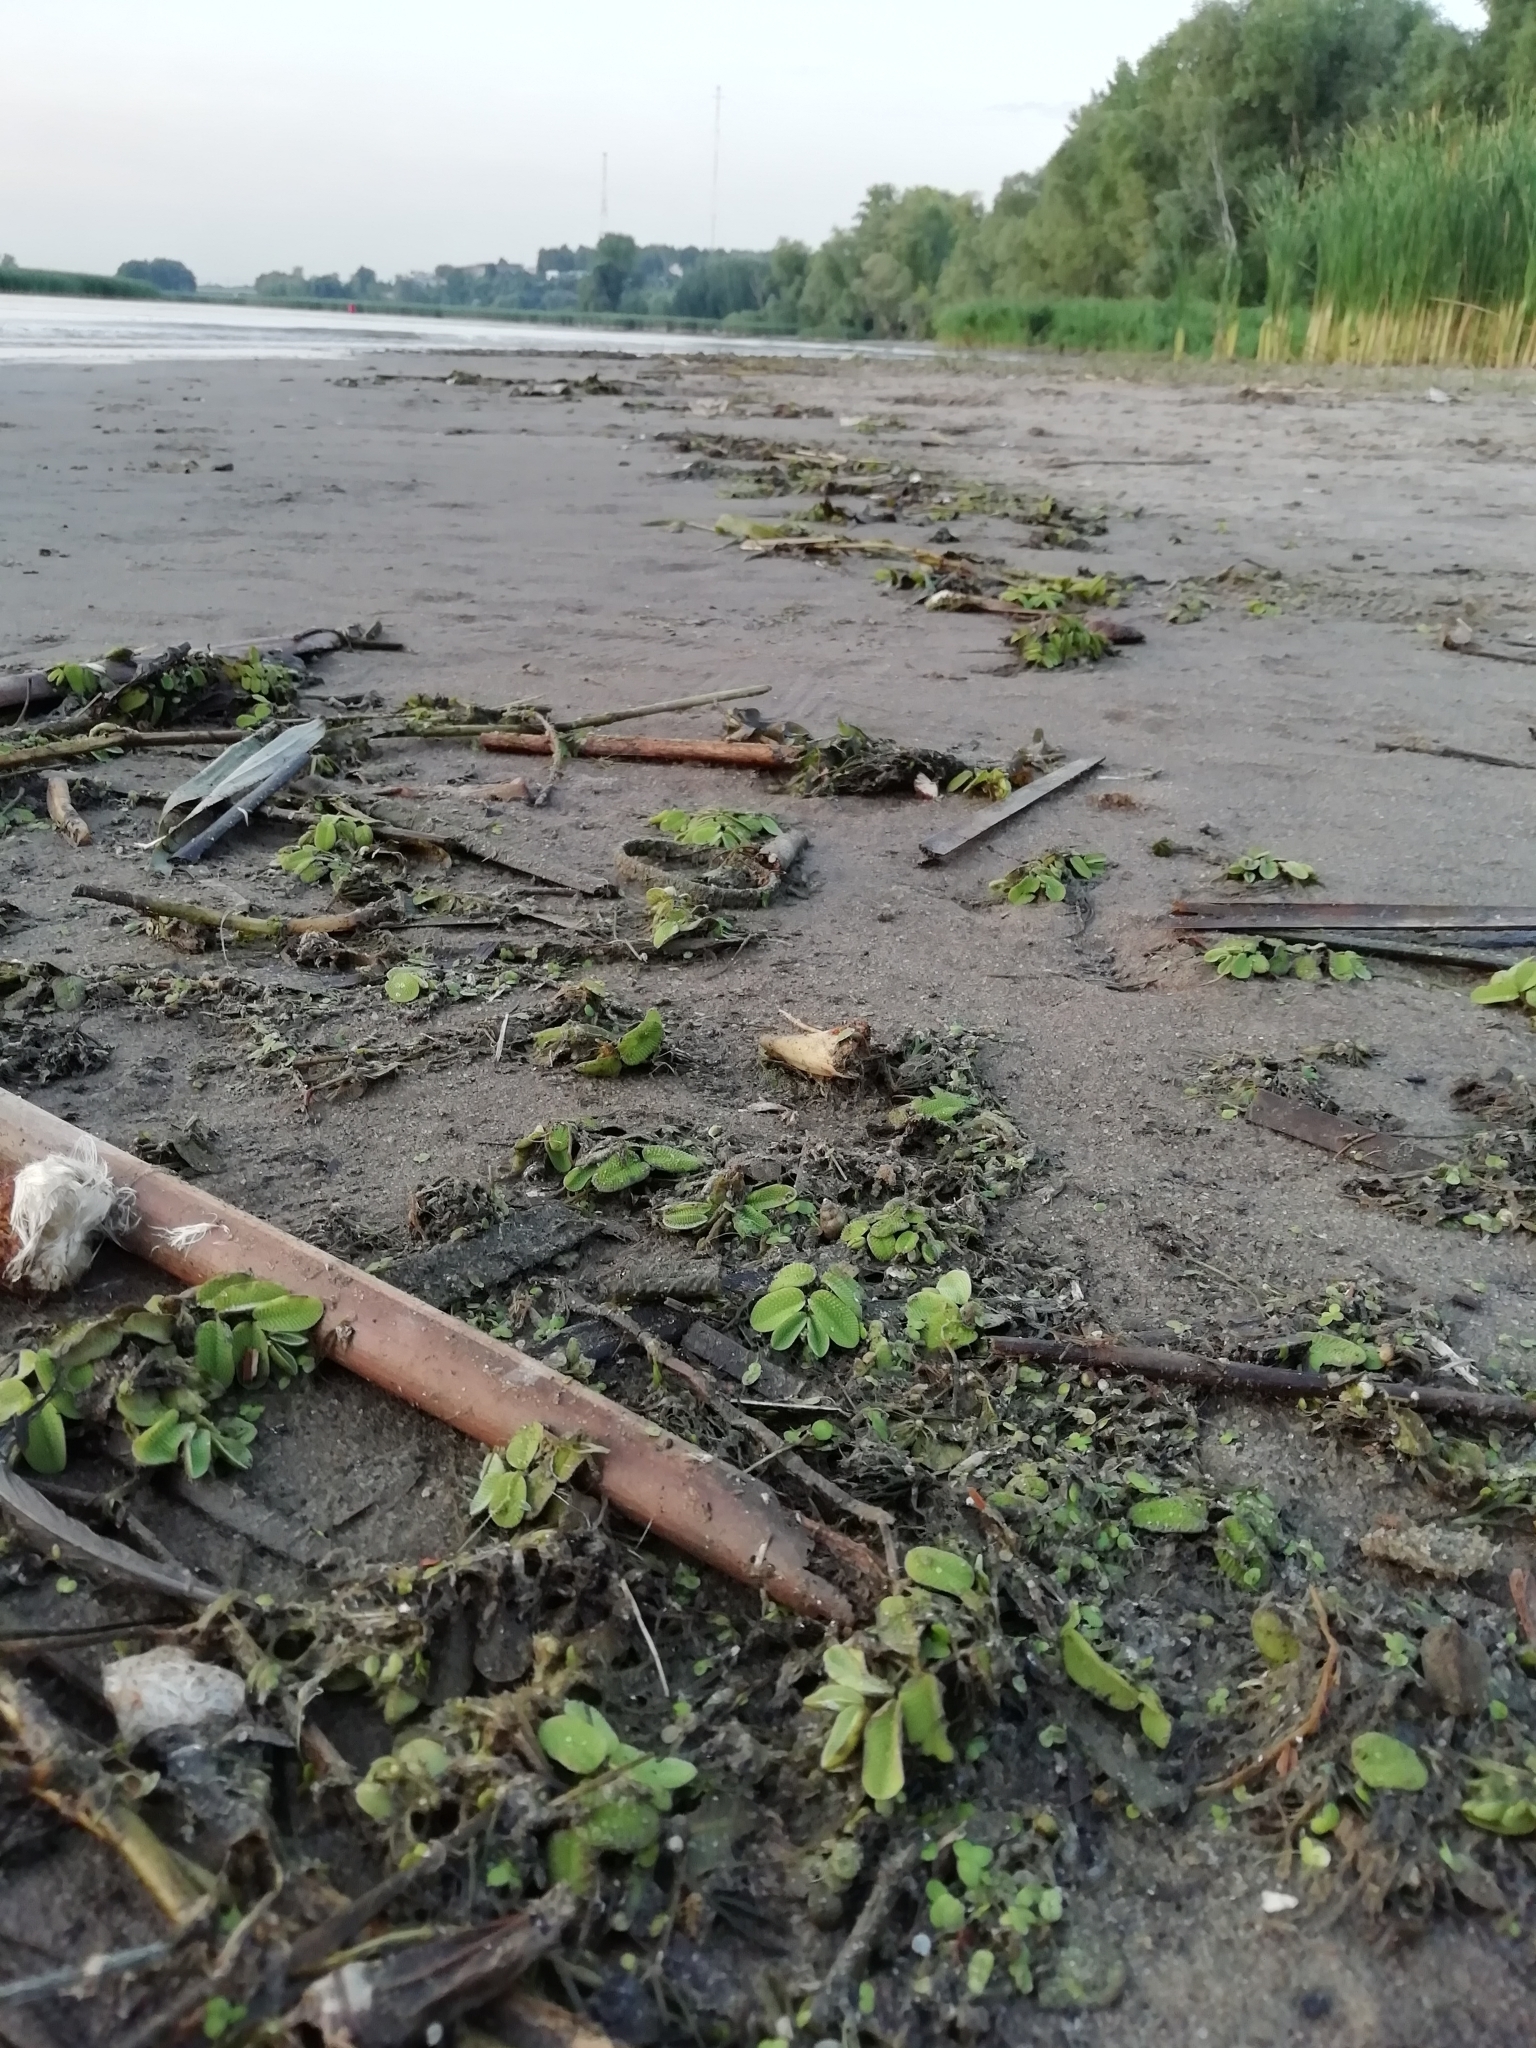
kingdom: Plantae
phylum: Tracheophyta
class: Polypodiopsida
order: Salviniales
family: Salviniaceae
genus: Salvinia
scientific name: Salvinia natans
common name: Floating fern
